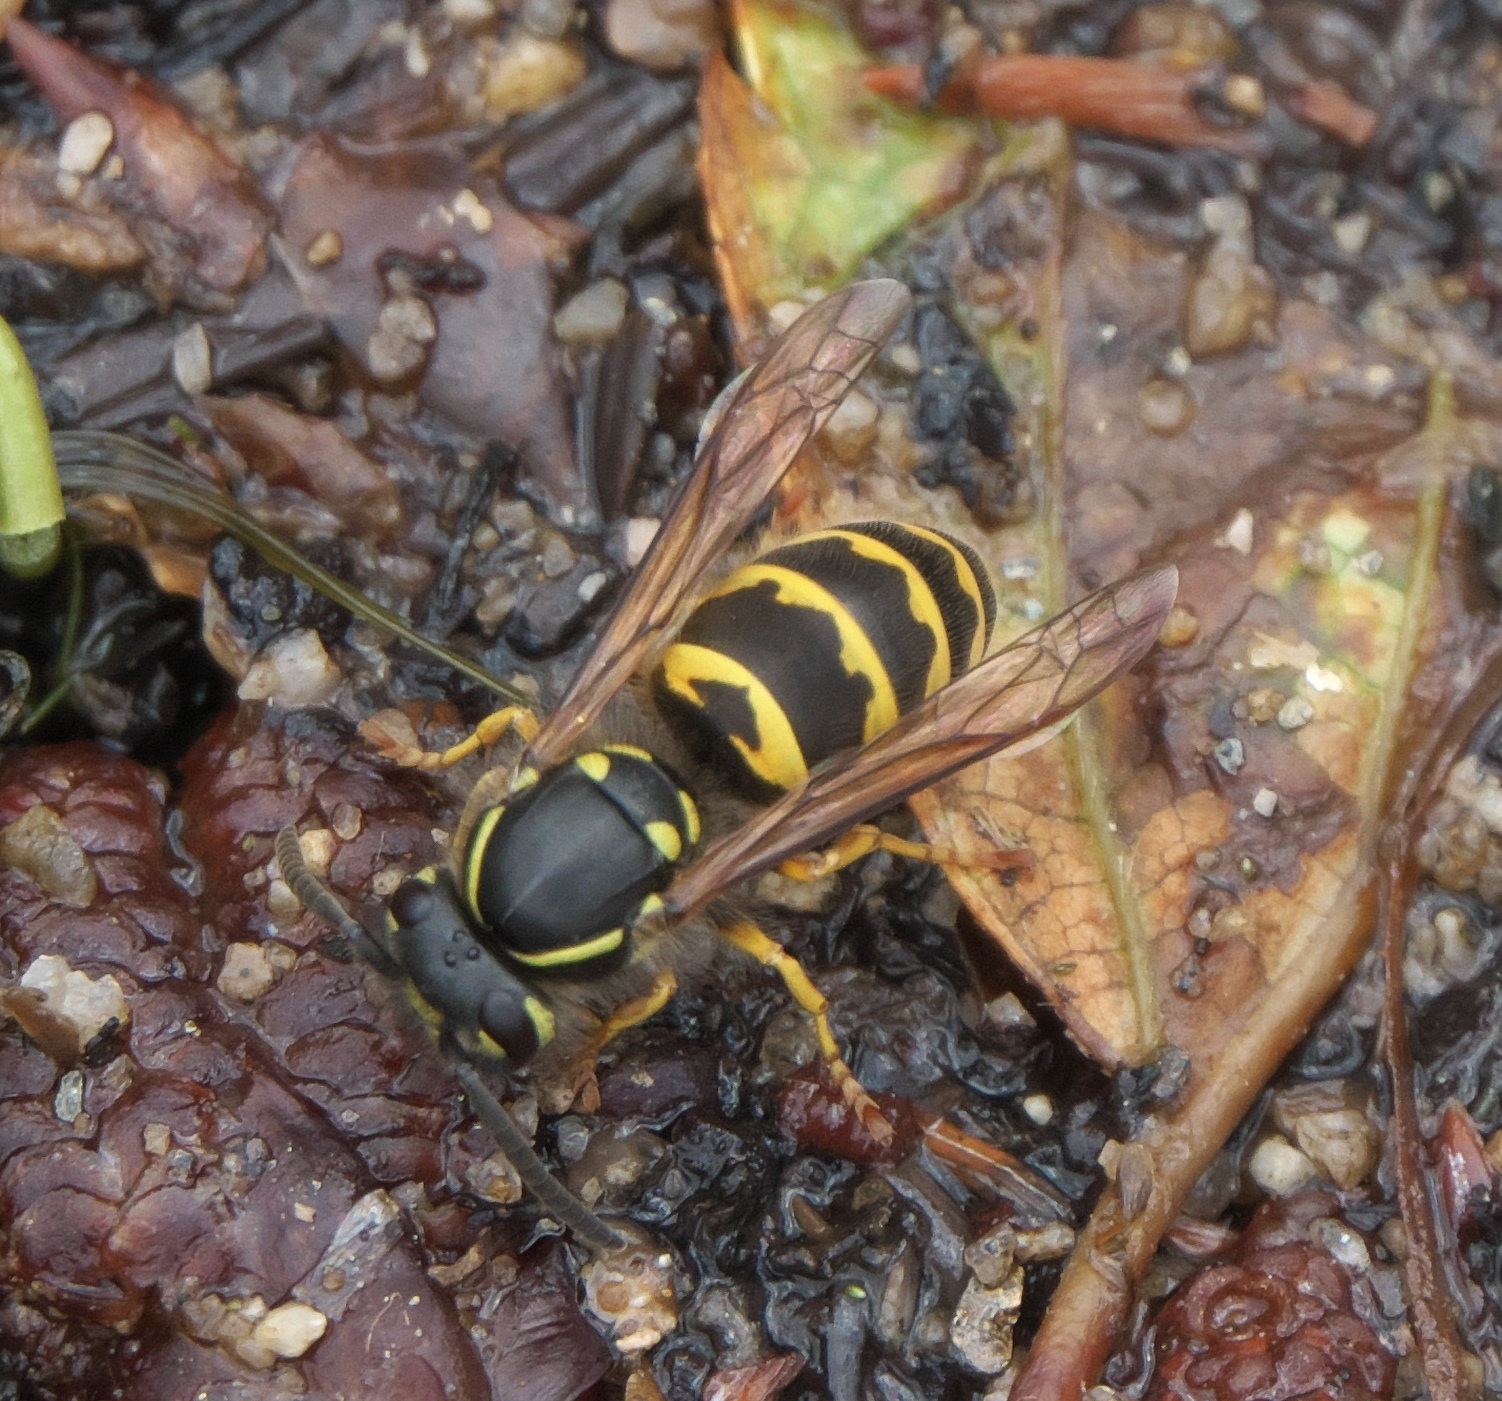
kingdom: Animalia
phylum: Arthropoda
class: Insecta
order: Hymenoptera
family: Vespidae
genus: Vespula
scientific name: Vespula alascensis
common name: Alaska yellowjacket
